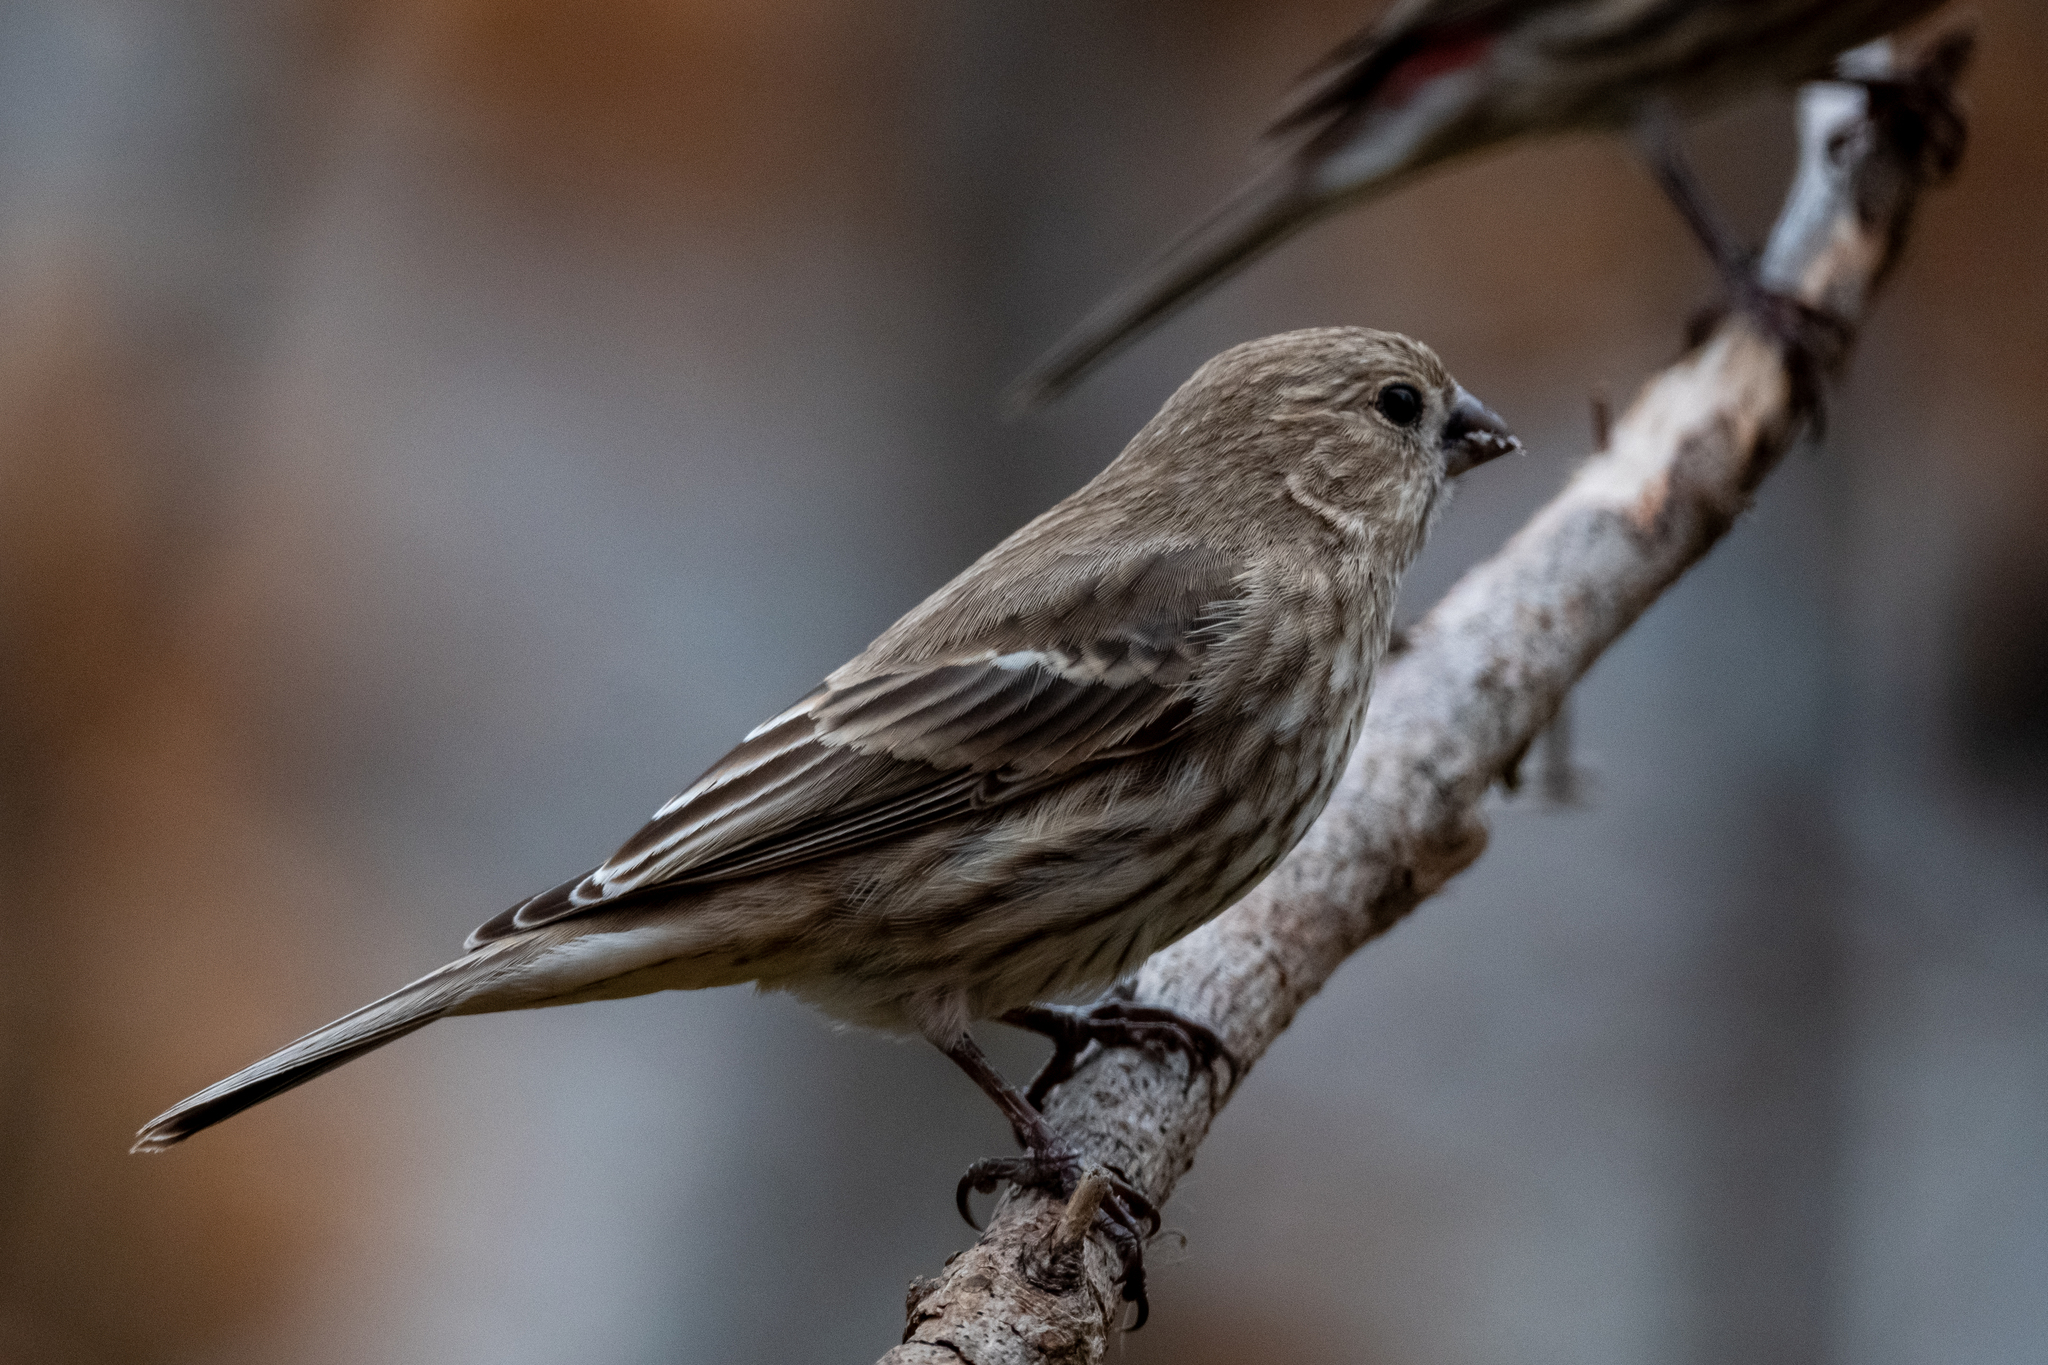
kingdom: Animalia
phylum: Chordata
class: Aves
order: Passeriformes
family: Fringillidae
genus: Haemorhous
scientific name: Haemorhous mexicanus
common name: House finch
